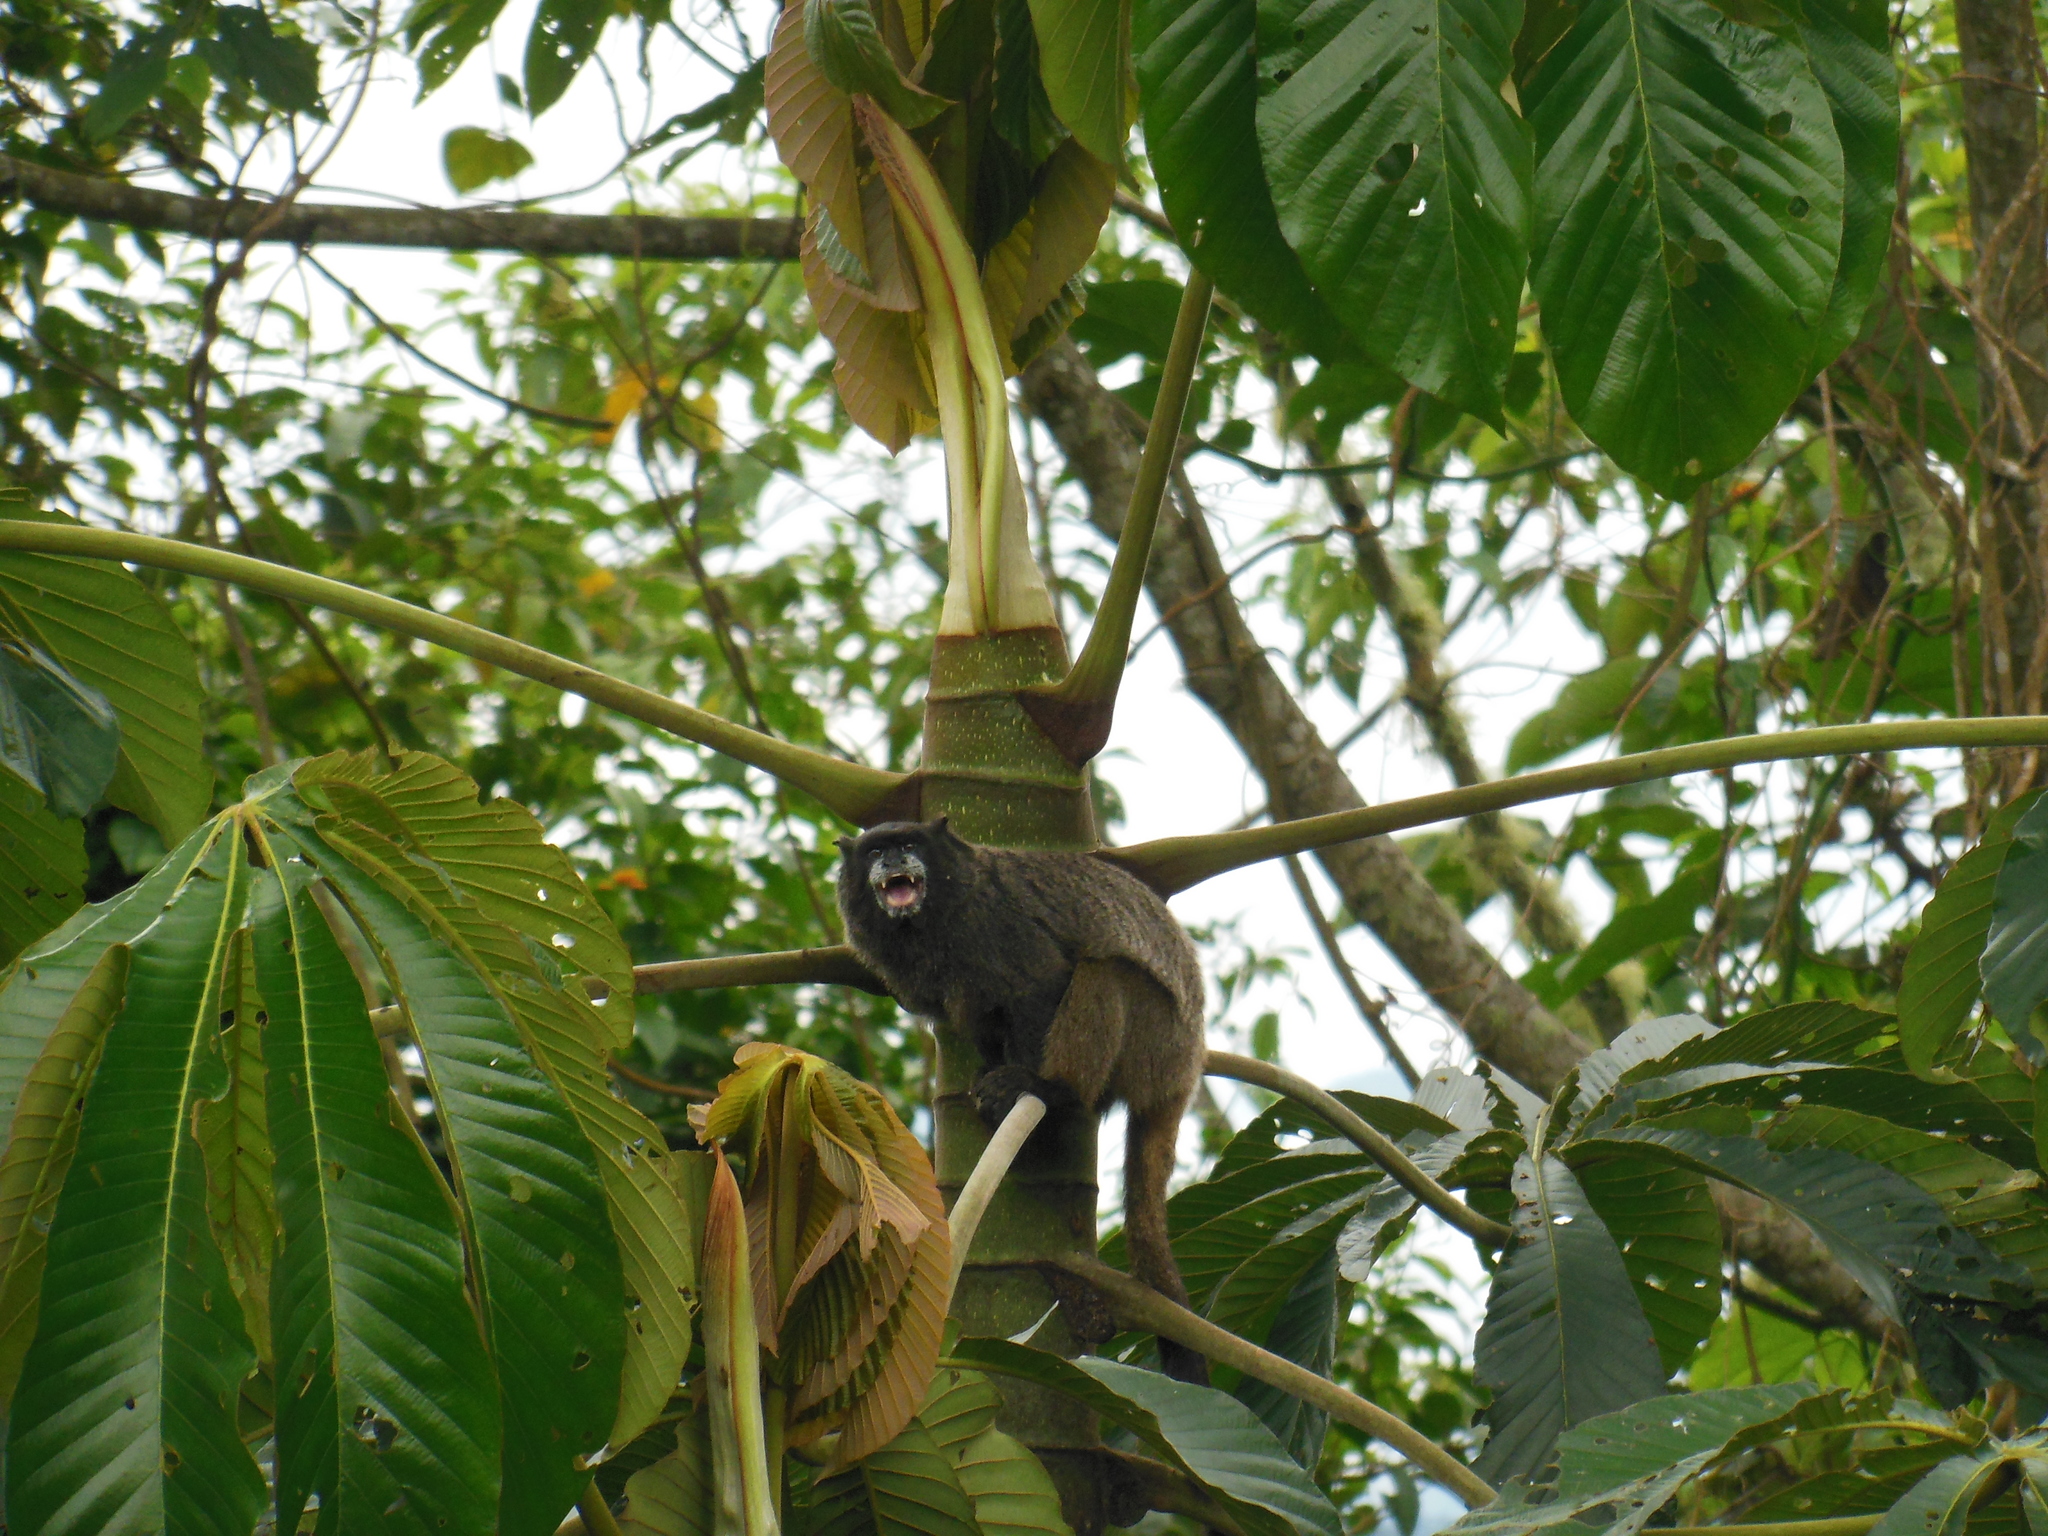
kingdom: Animalia
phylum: Chordata
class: Mammalia
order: Primates
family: Callitrichidae
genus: Leontocebus
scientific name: Leontocebus nigricollis
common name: Black-mantled tamarin
